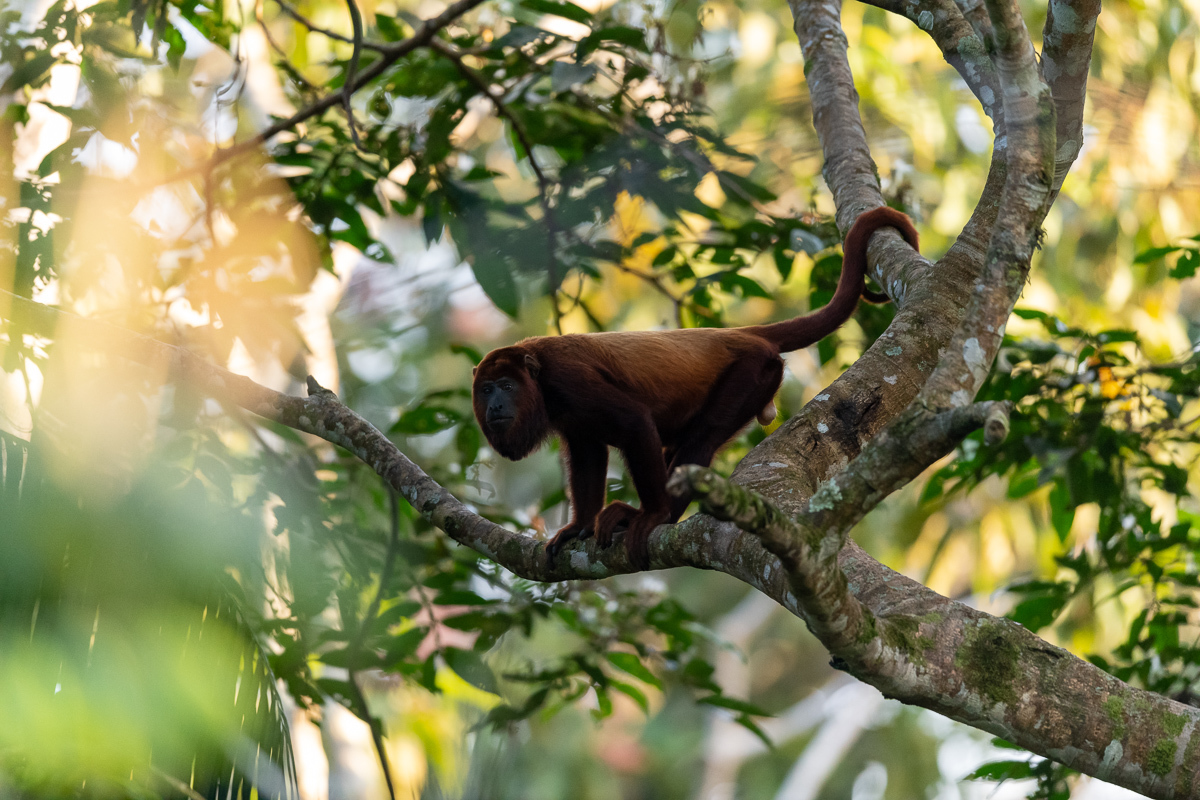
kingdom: Animalia
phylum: Chordata
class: Mammalia
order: Primates
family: Atelidae
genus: Alouatta
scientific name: Alouatta seniculus
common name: Venezuelan red howler
